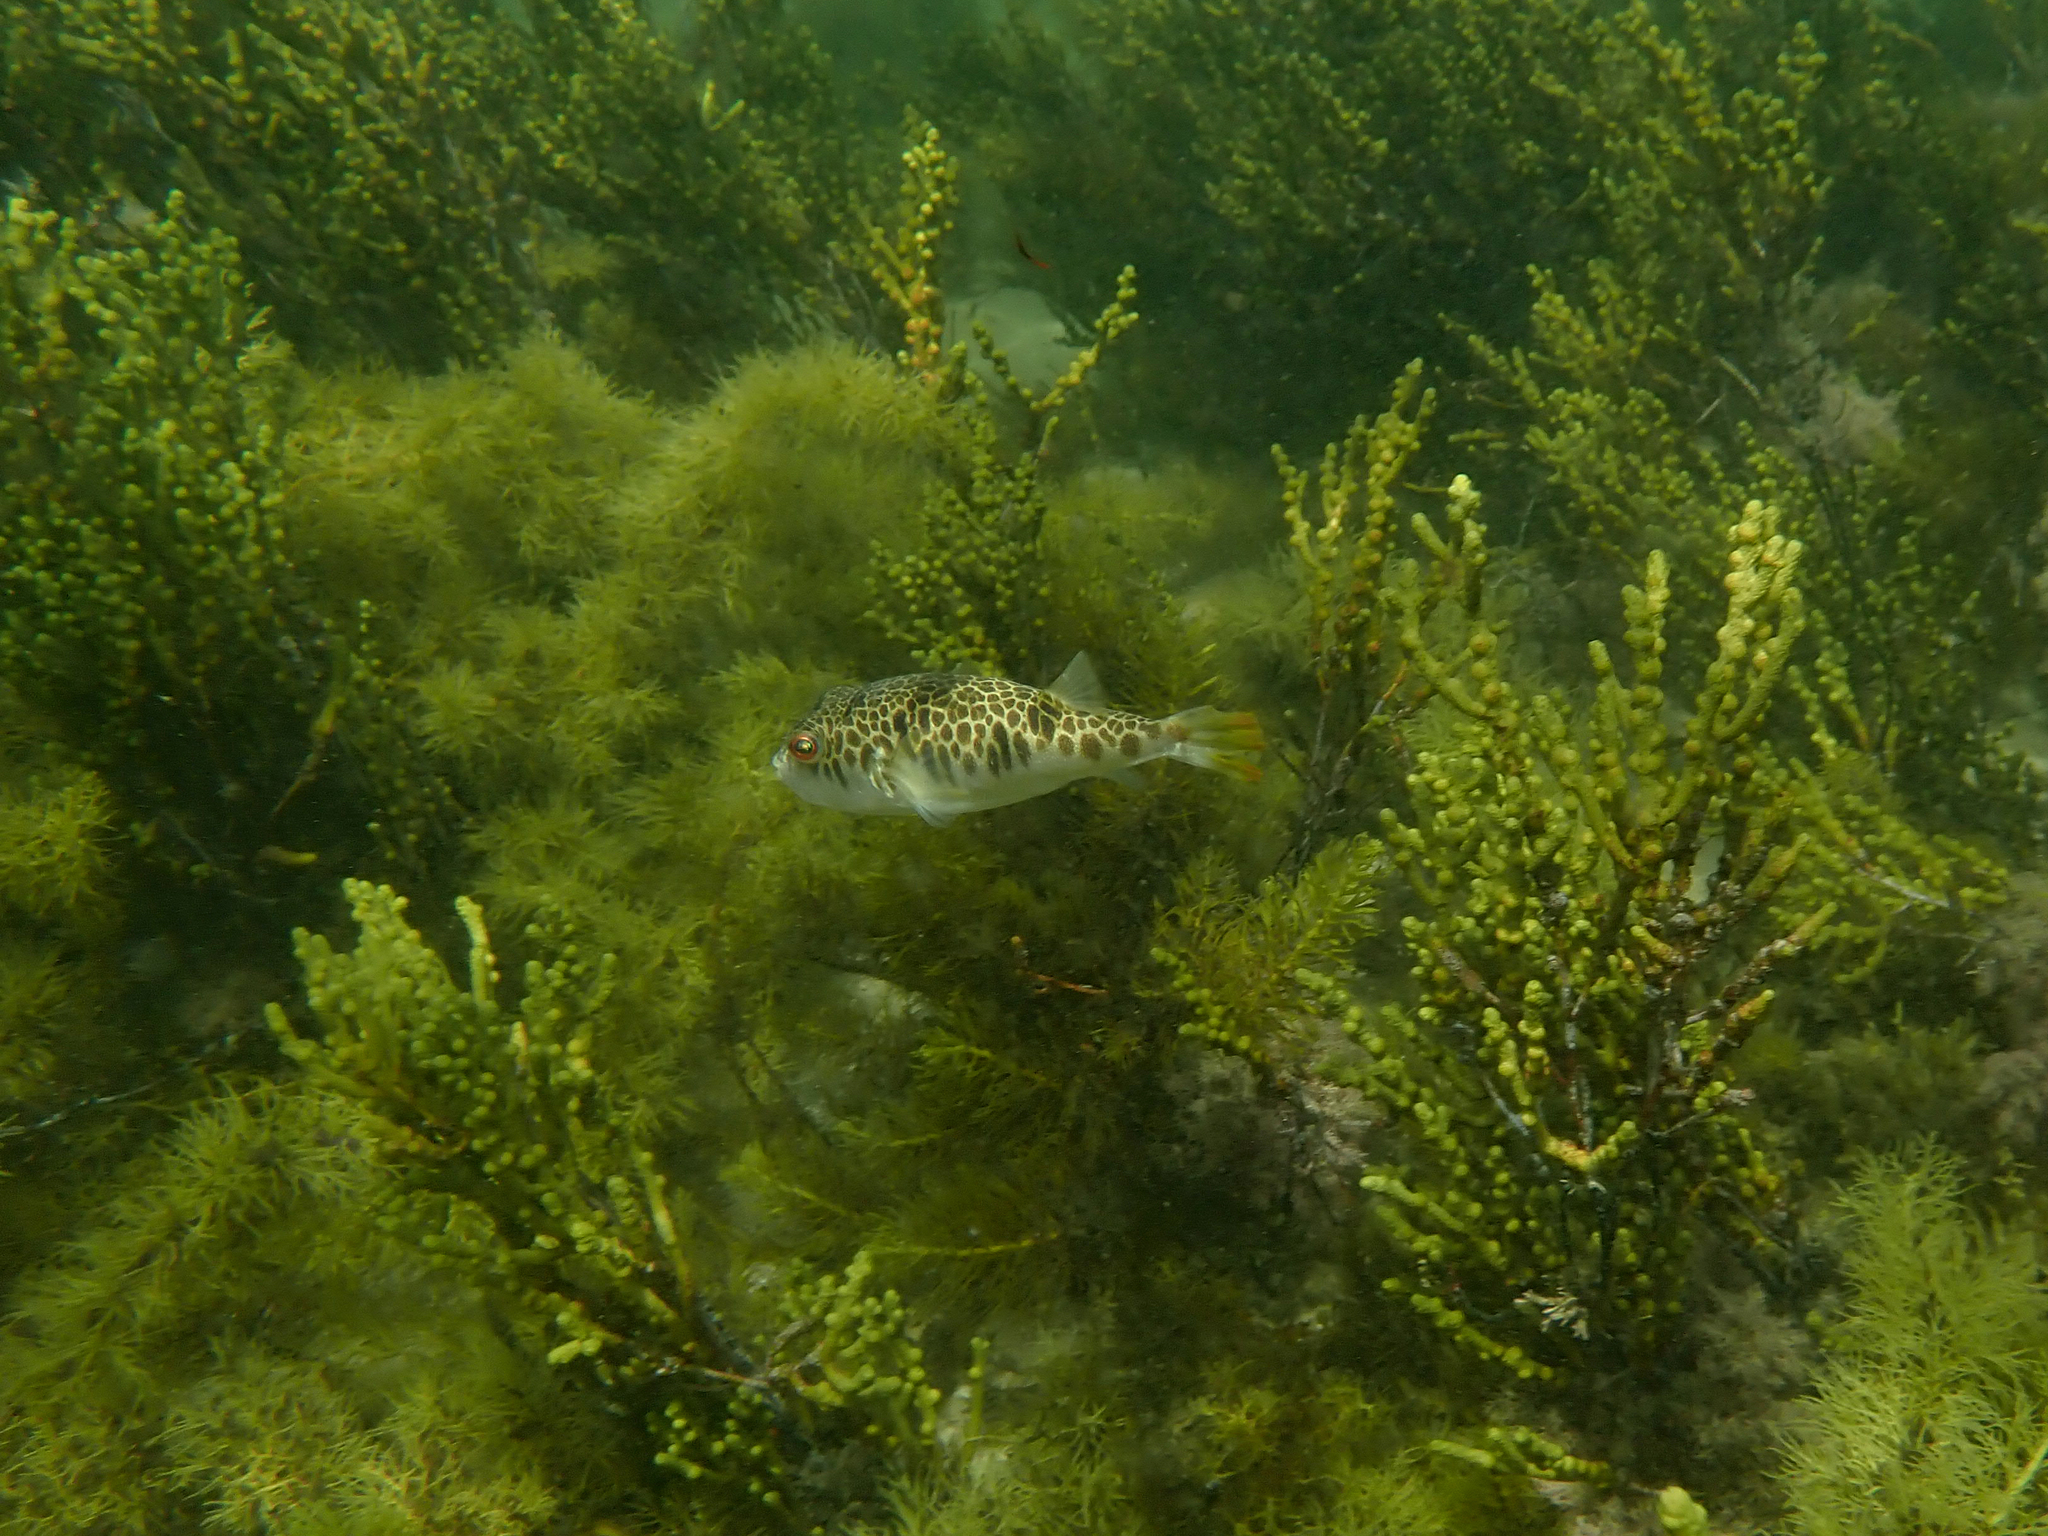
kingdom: Animalia
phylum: Chordata
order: Tetraodontiformes
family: Tetraodontidae
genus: Tetractenos
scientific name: Tetractenos glaber
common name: Smooth toadfish
